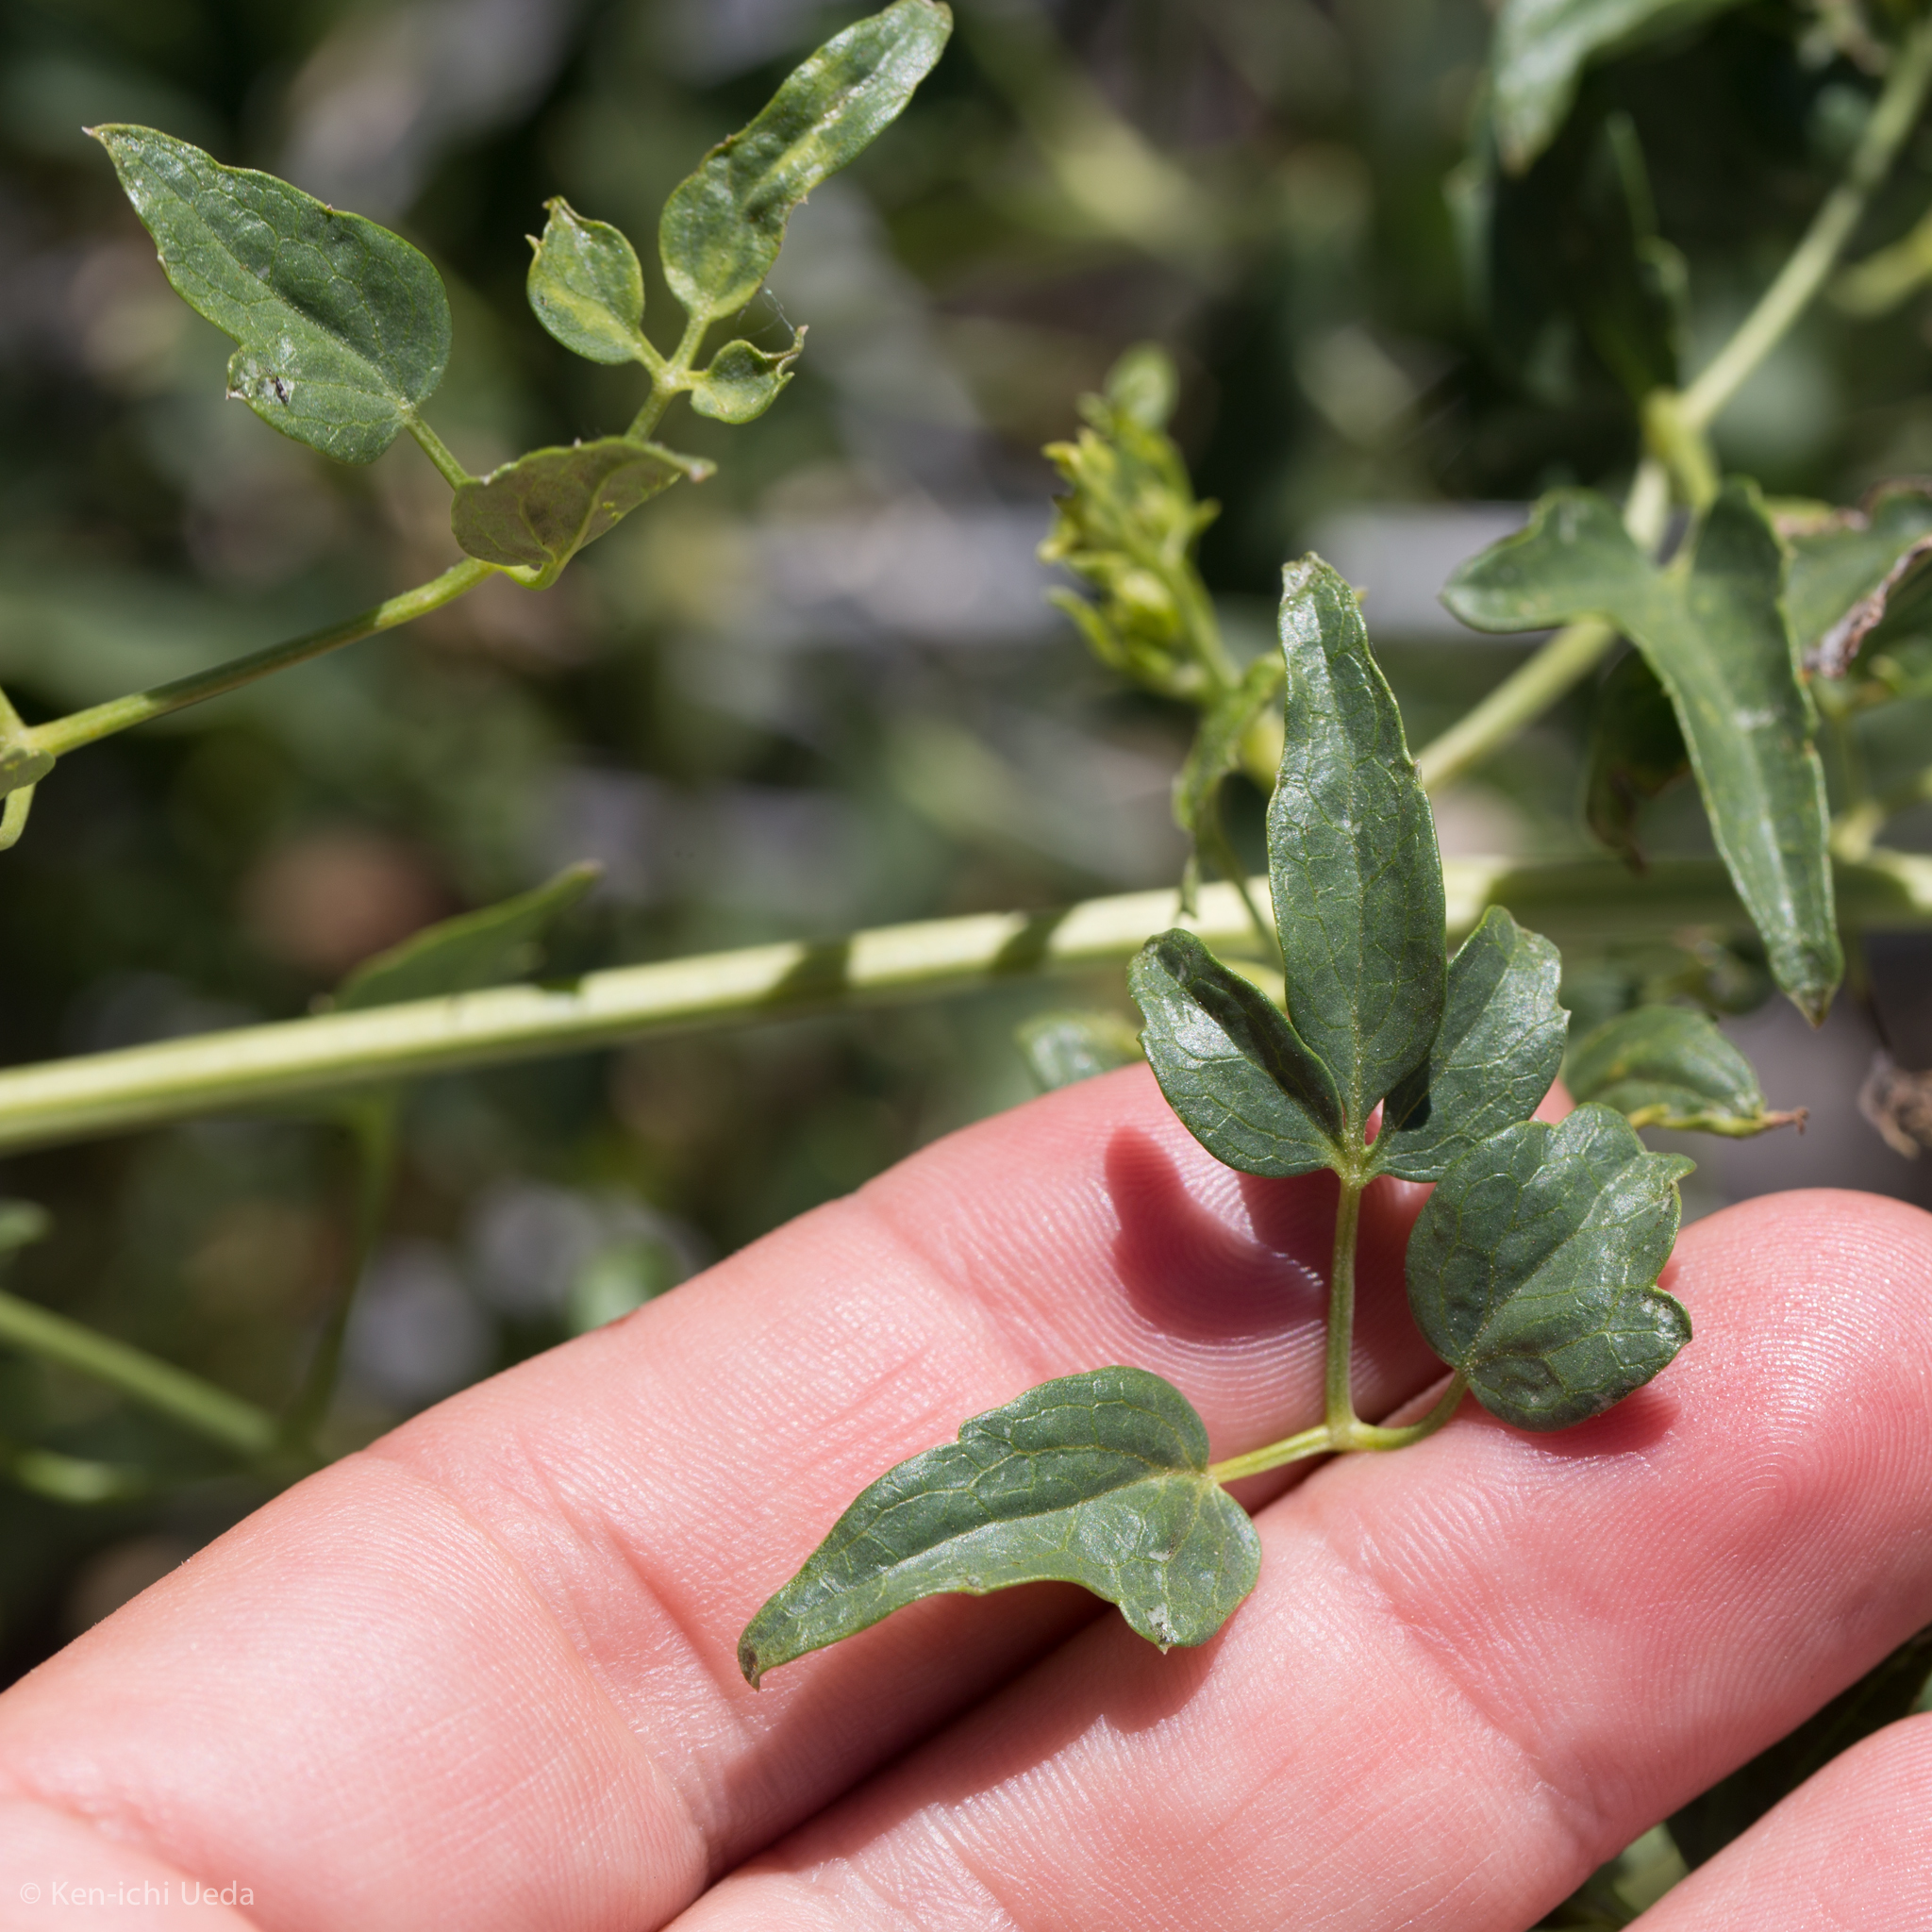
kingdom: Plantae
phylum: Tracheophyta
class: Magnoliopsida
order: Ranunculales
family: Ranunculaceae
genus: Clematis
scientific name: Clematis ligusticifolia
